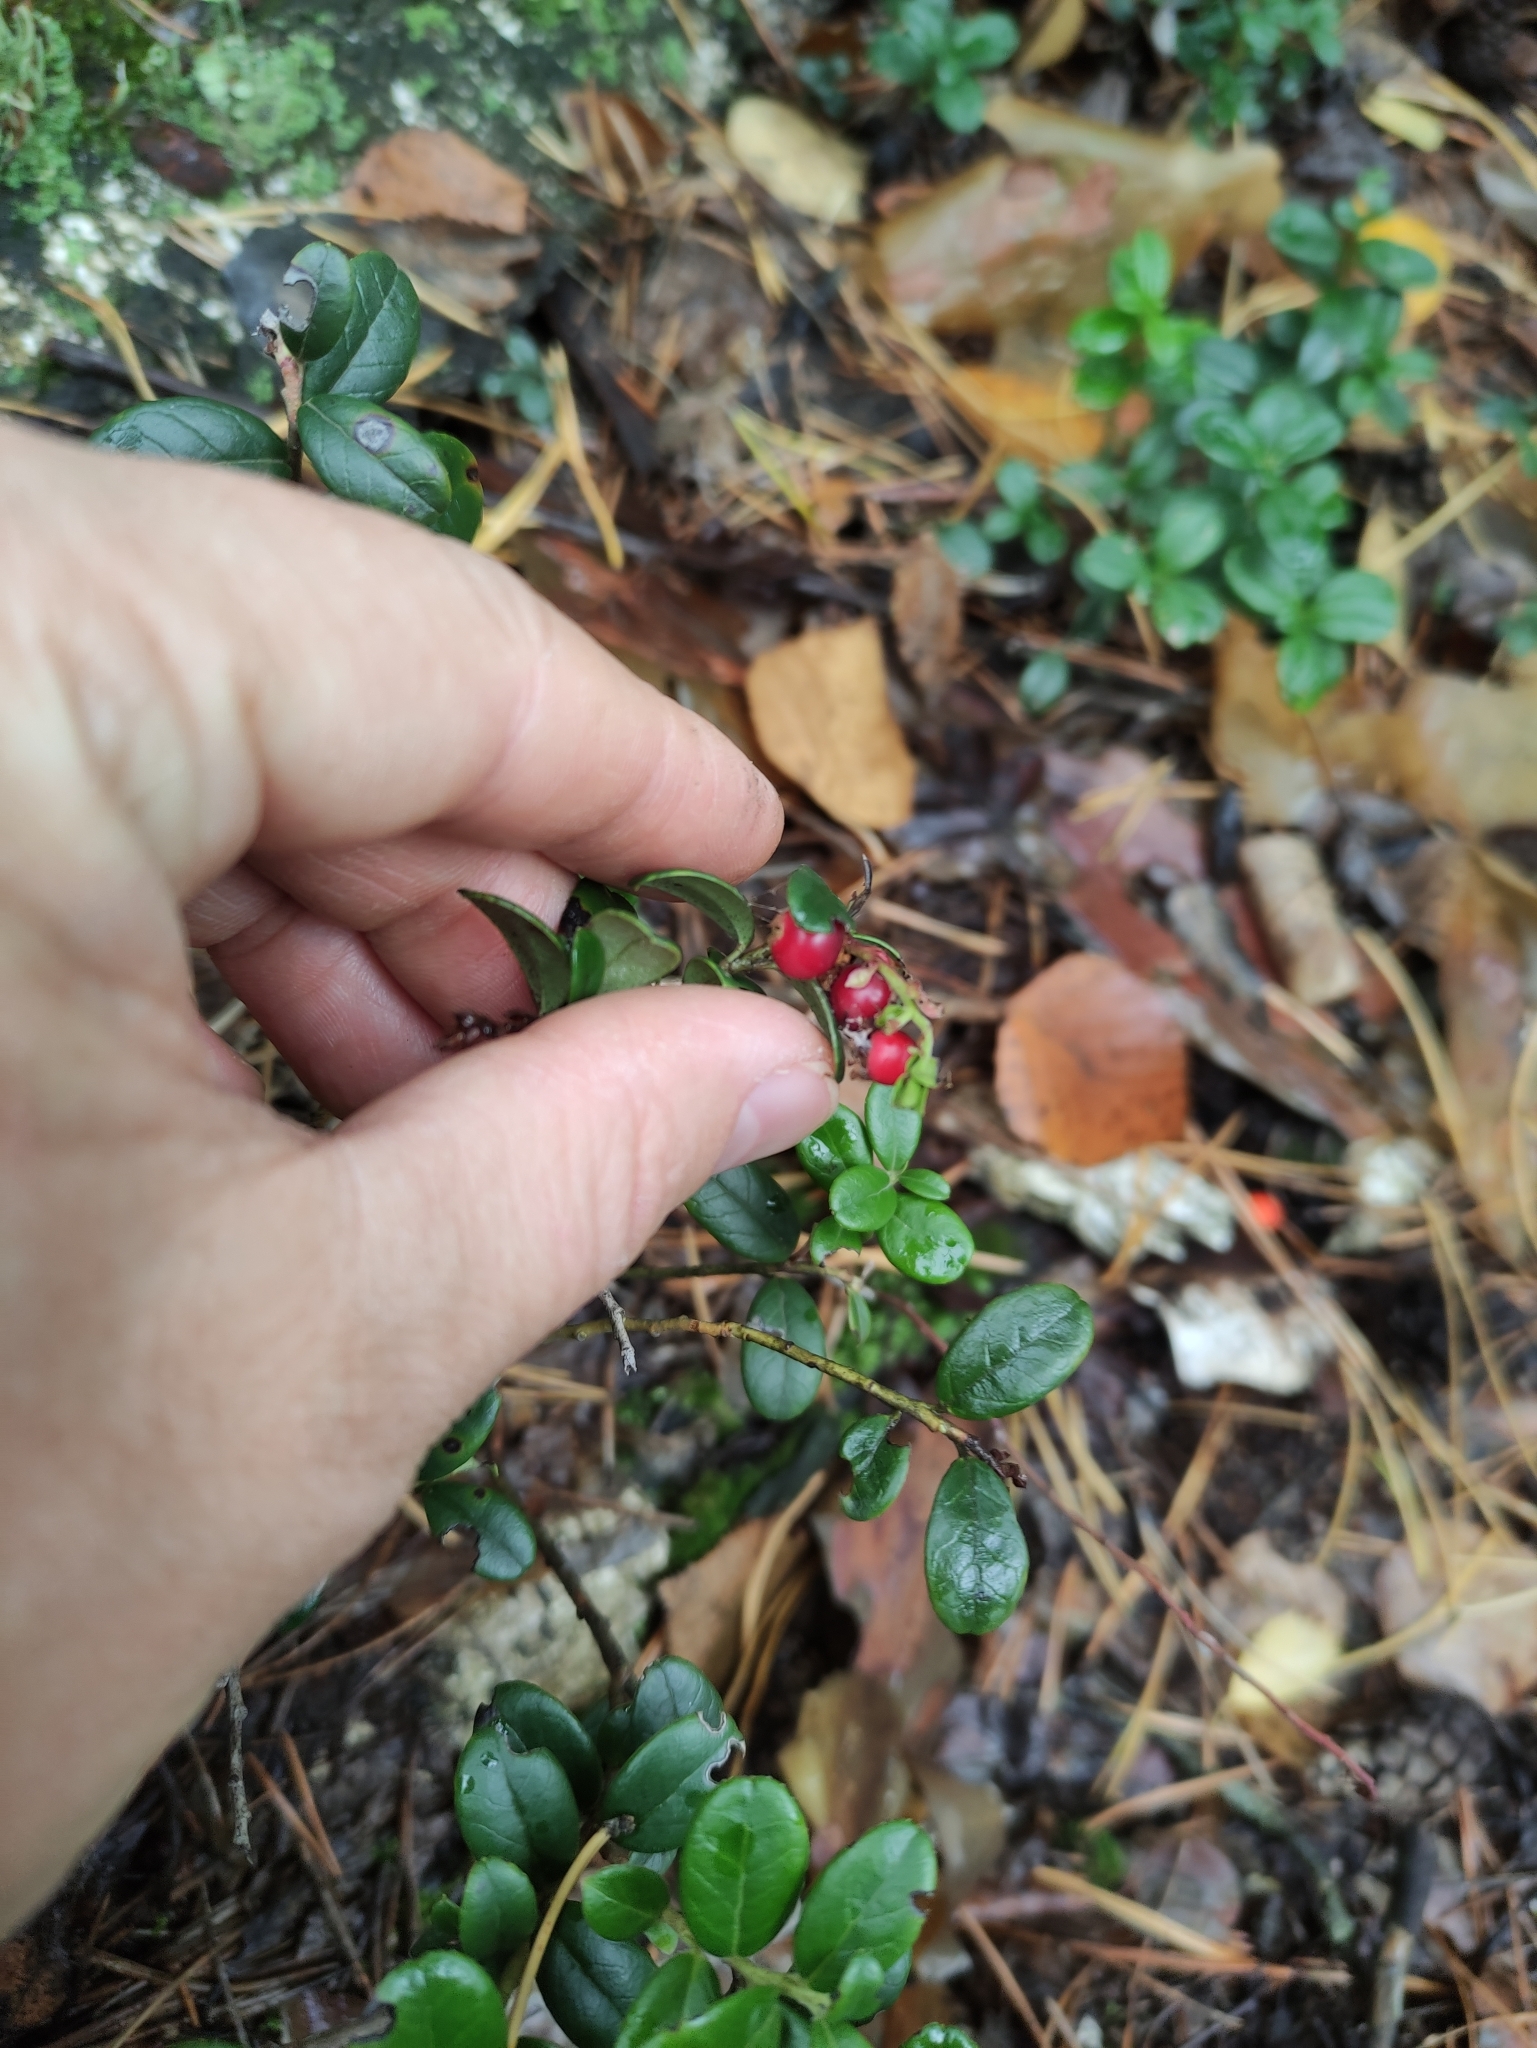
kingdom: Plantae
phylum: Tracheophyta
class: Magnoliopsida
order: Ericales
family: Ericaceae
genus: Vaccinium
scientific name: Vaccinium vitis-idaea
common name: Cowberry
